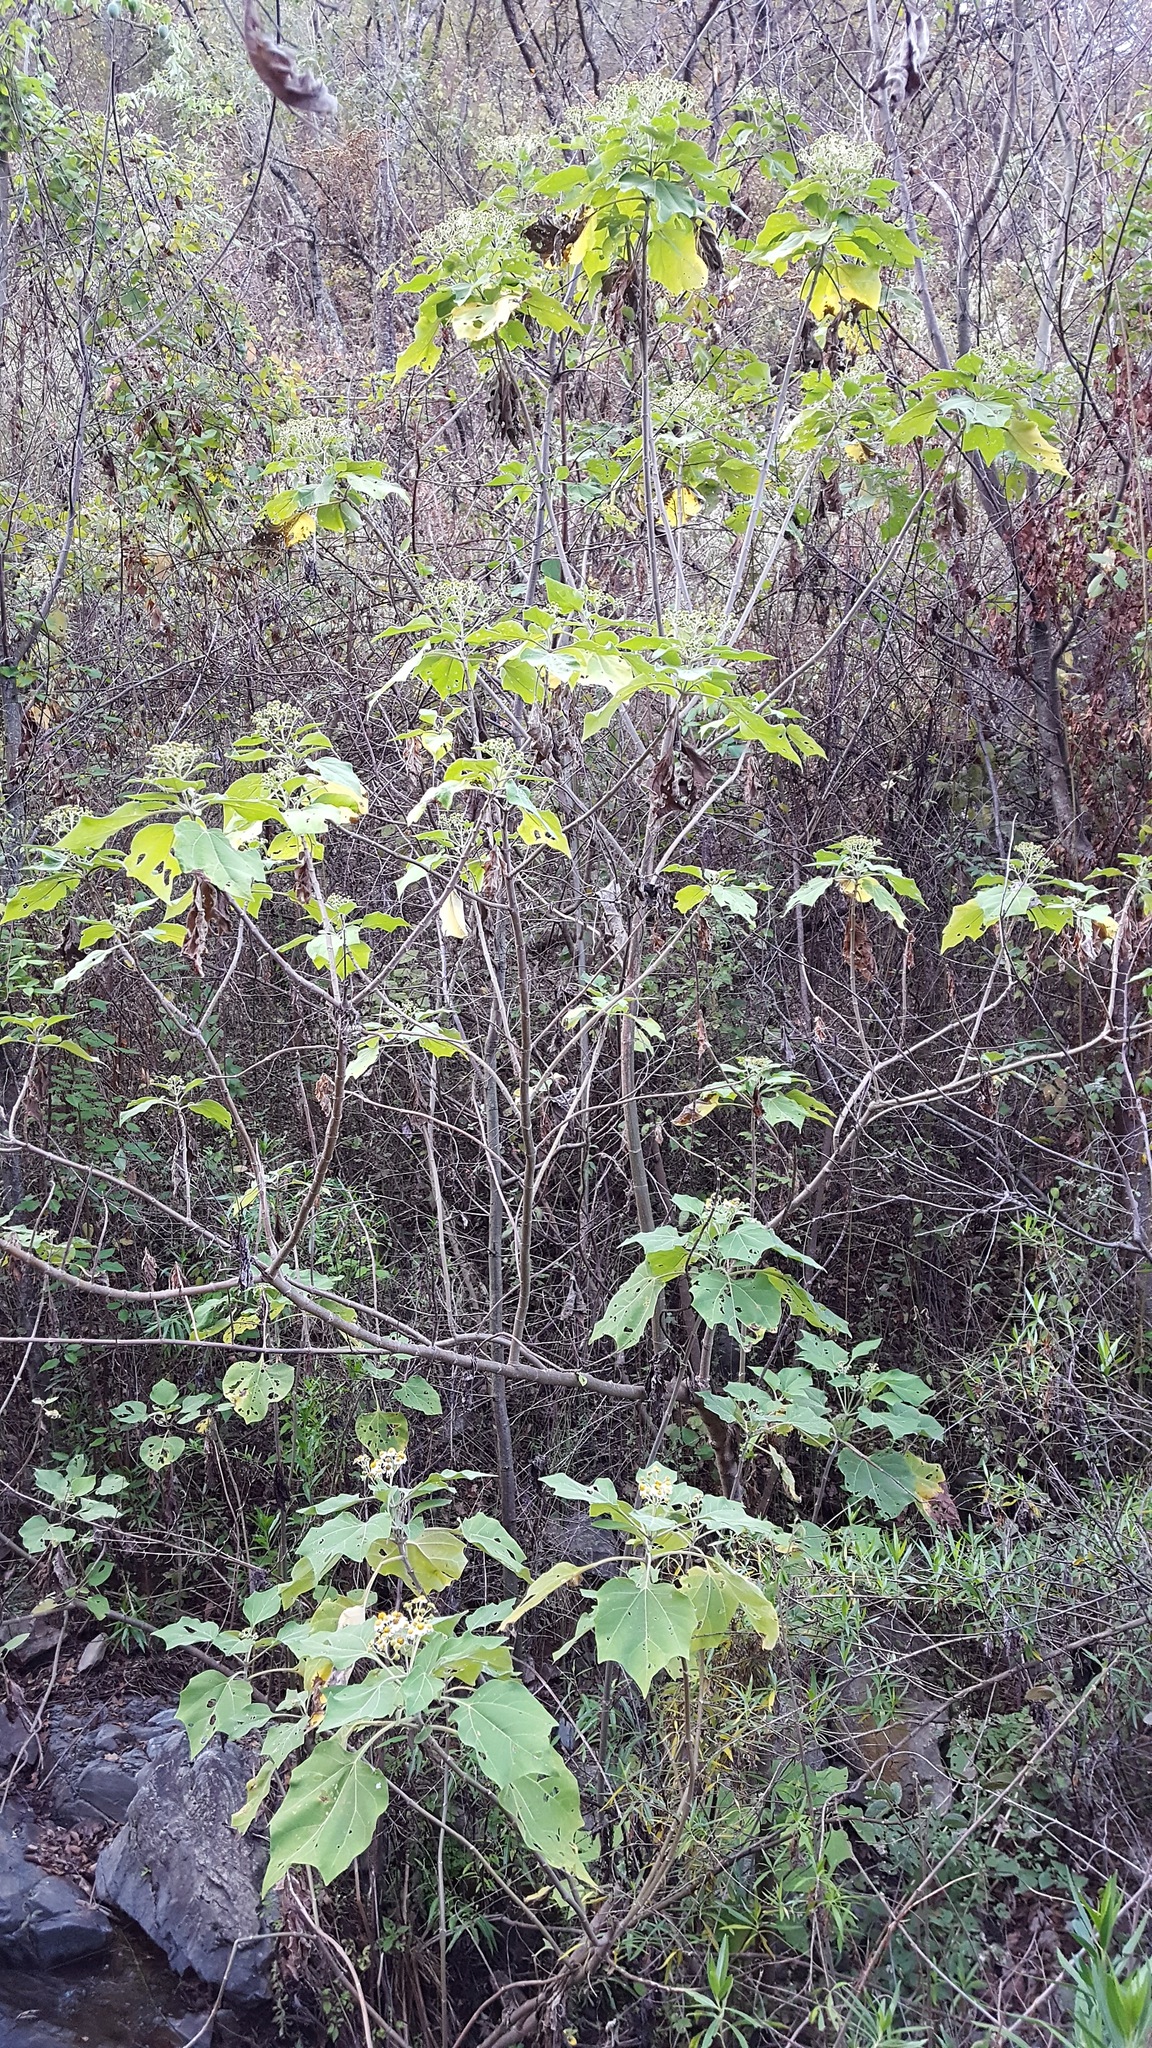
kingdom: Plantae
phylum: Tracheophyta
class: Magnoliopsida
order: Asterales
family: Asteraceae
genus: Podachaenium
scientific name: Podachaenium eminens
